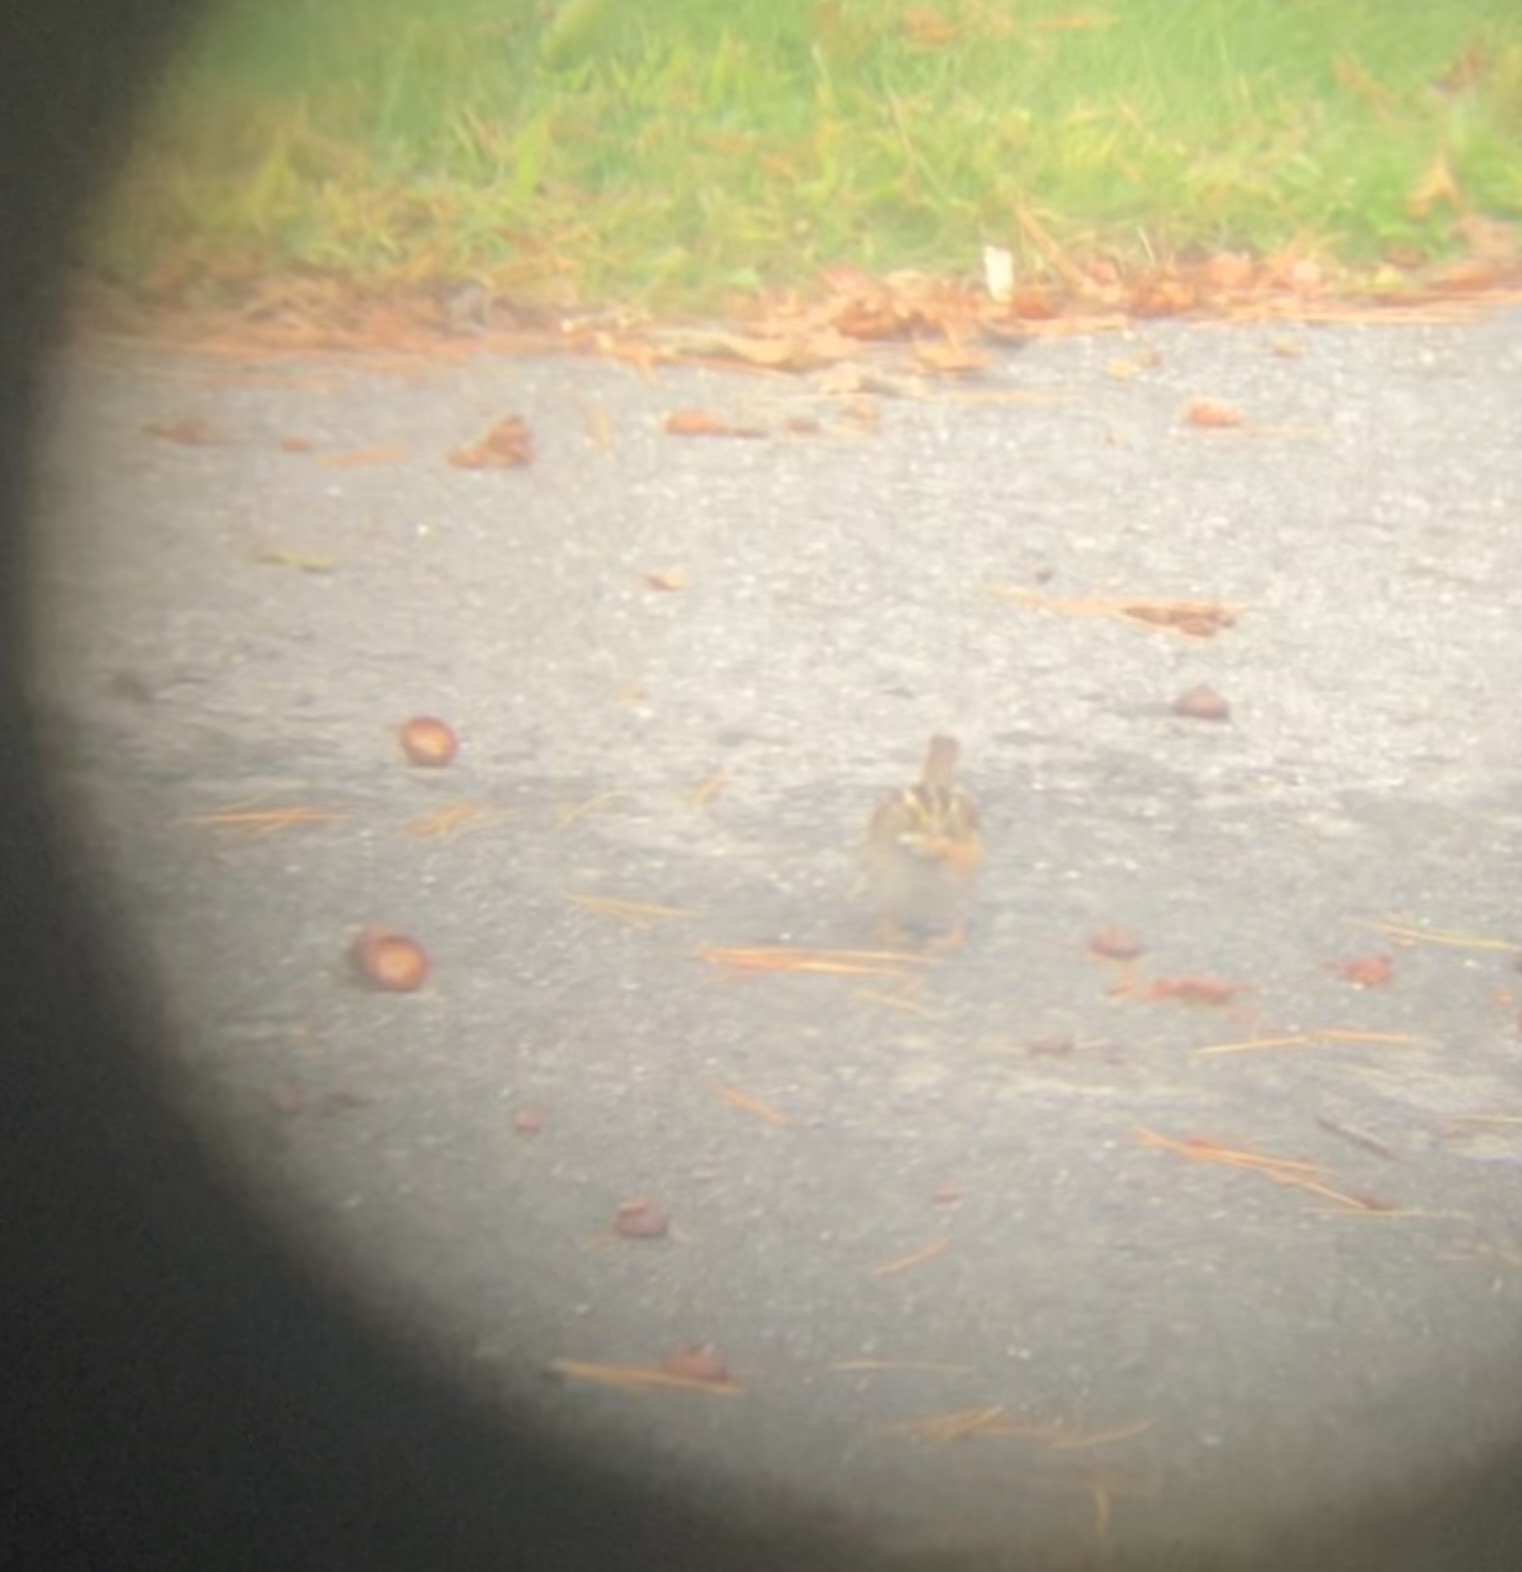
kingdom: Animalia
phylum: Chordata
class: Aves
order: Passeriformes
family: Passerellidae
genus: Zonotrichia
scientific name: Zonotrichia albicollis
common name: White-throated sparrow
